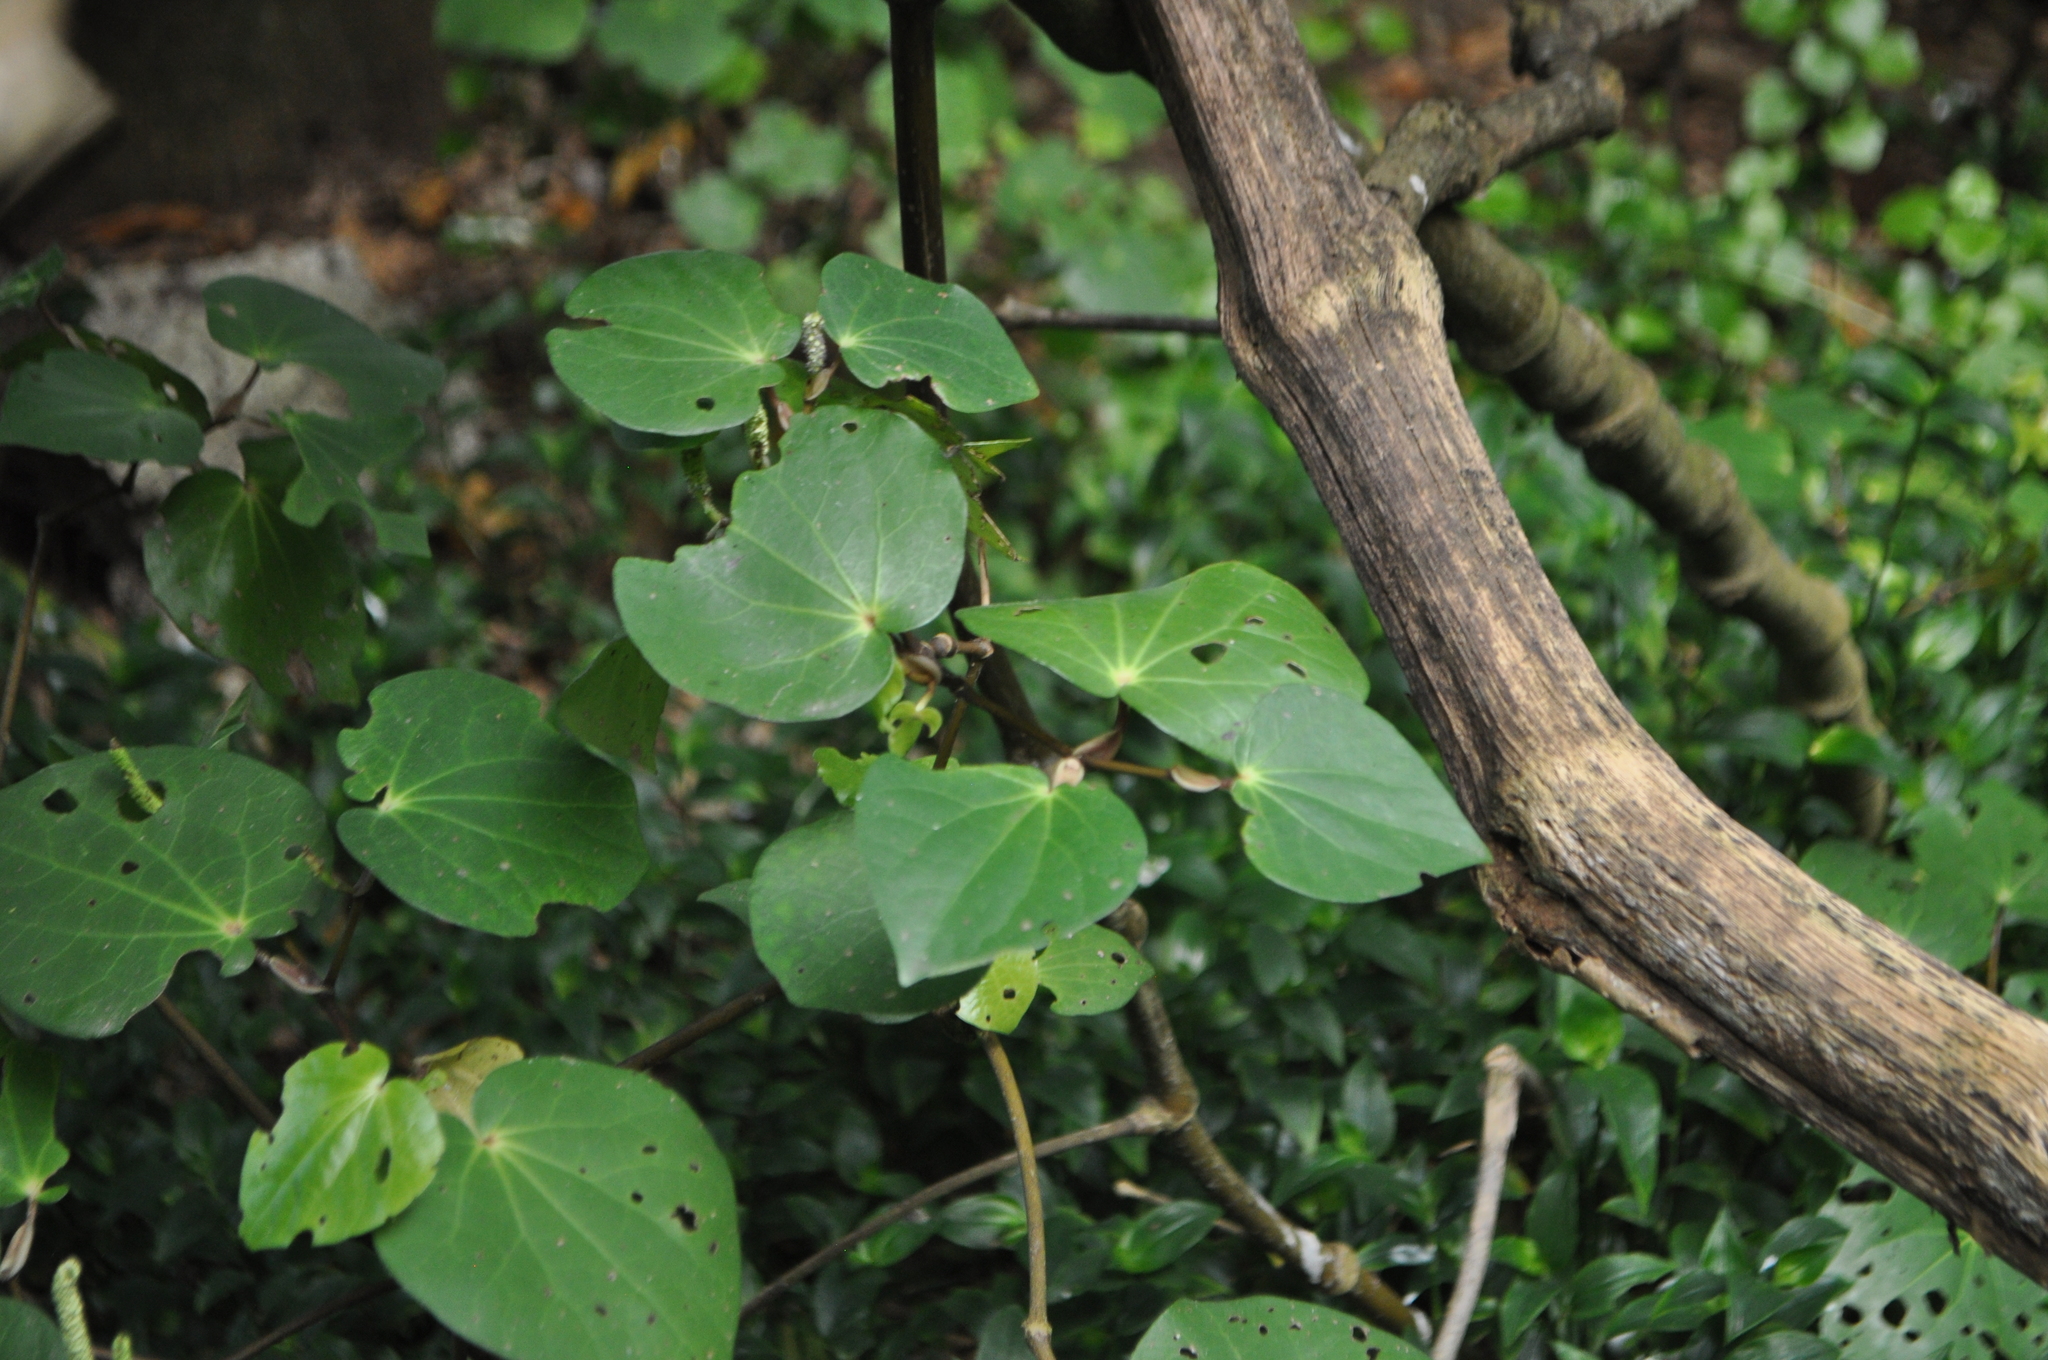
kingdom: Plantae
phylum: Tracheophyta
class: Magnoliopsida
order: Piperales
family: Piperaceae
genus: Macropiper
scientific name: Macropiper excelsum
